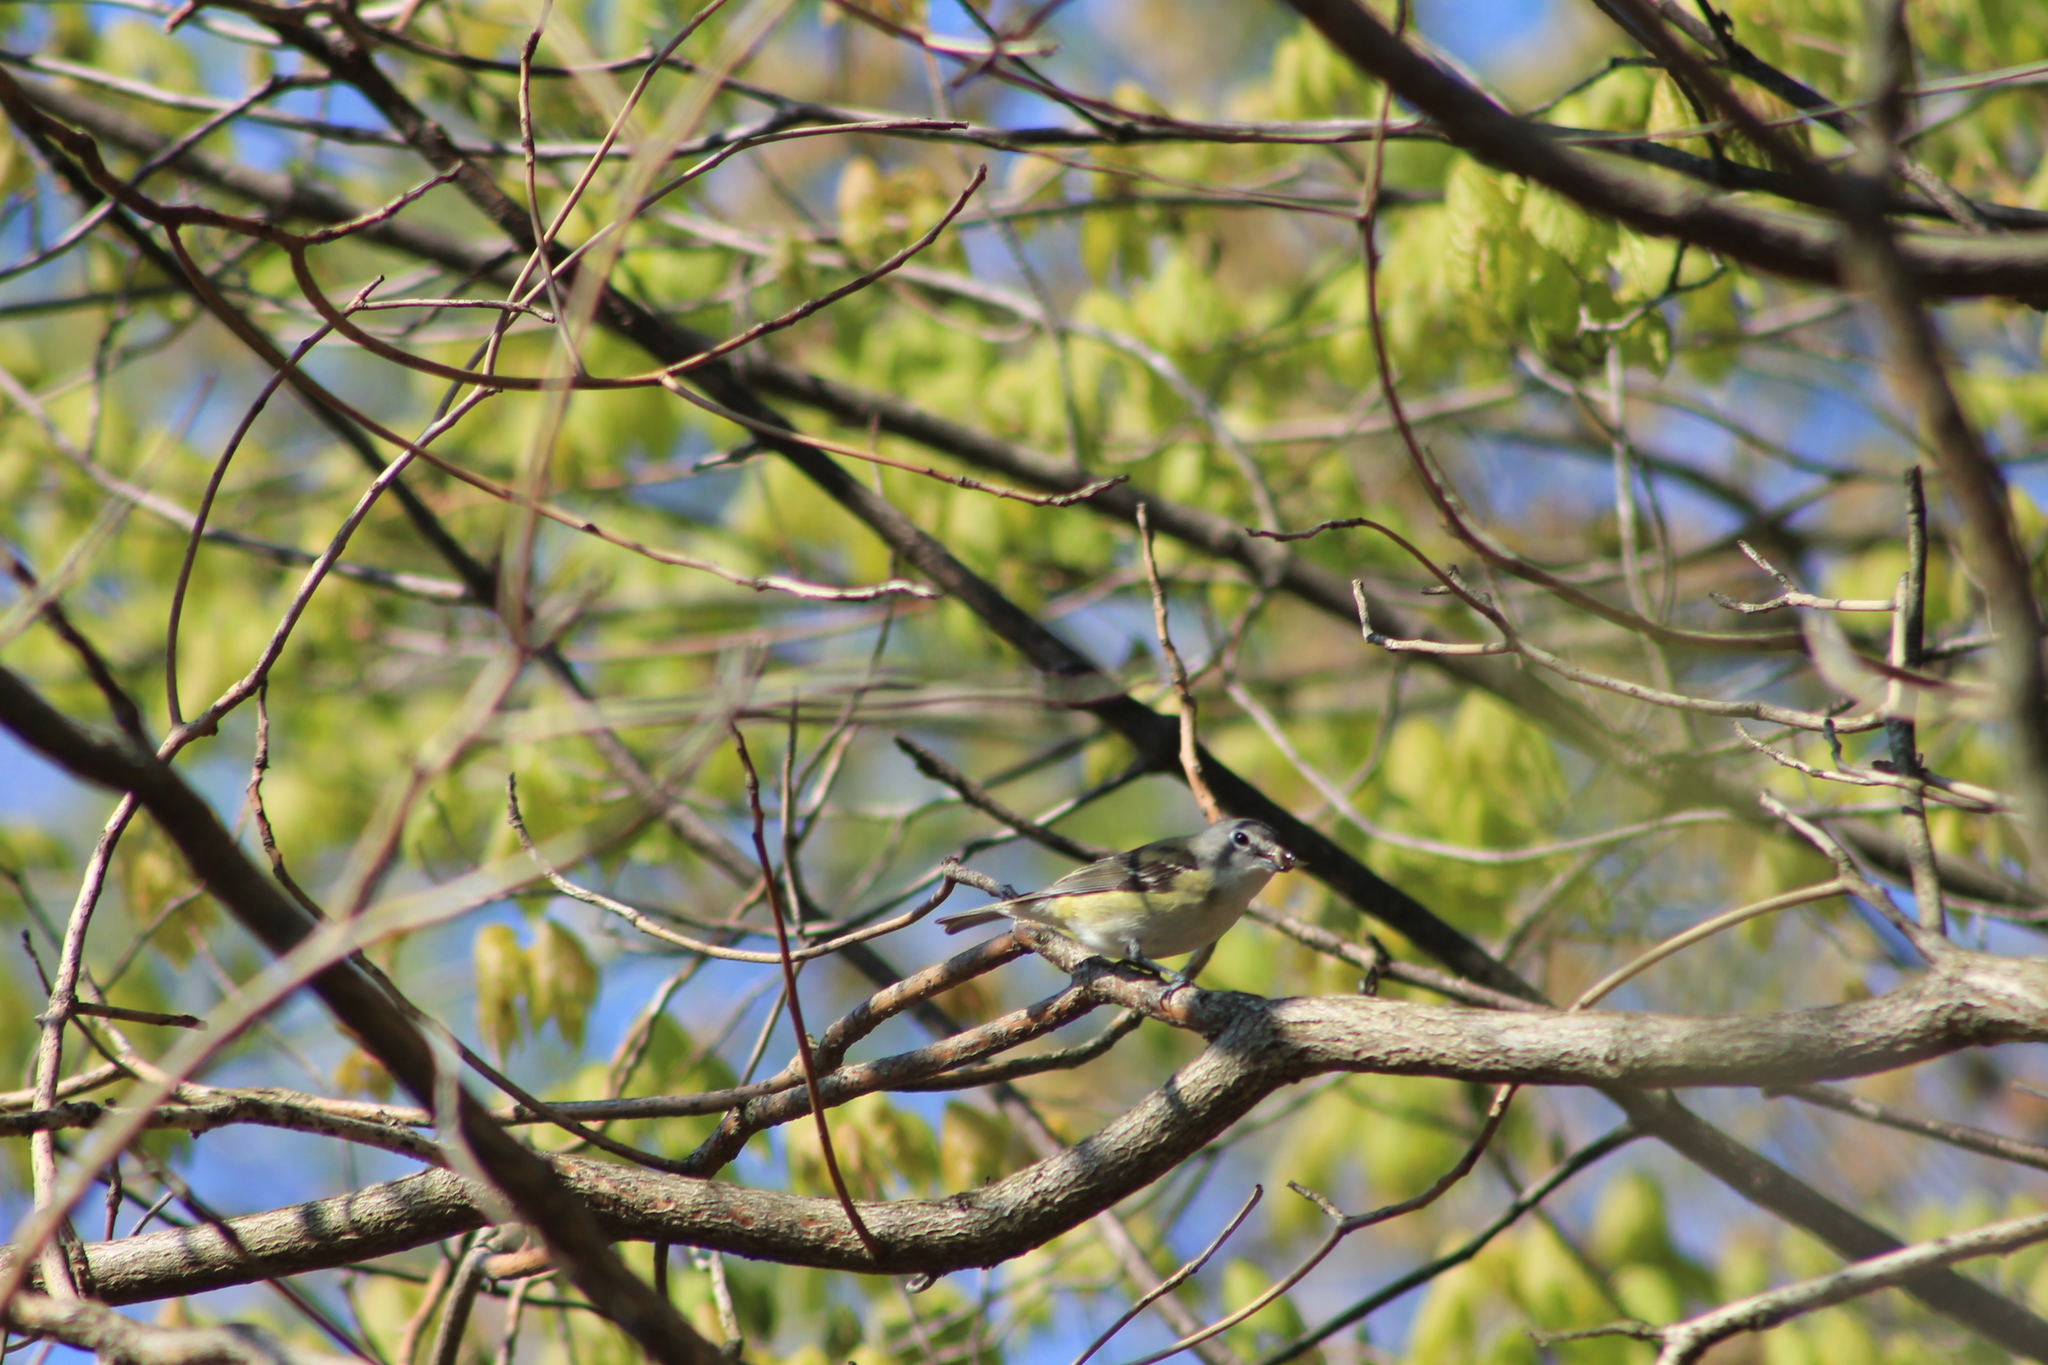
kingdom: Animalia
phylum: Chordata
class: Aves
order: Passeriformes
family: Vireonidae
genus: Vireo
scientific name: Vireo solitarius
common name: Blue-headed vireo
